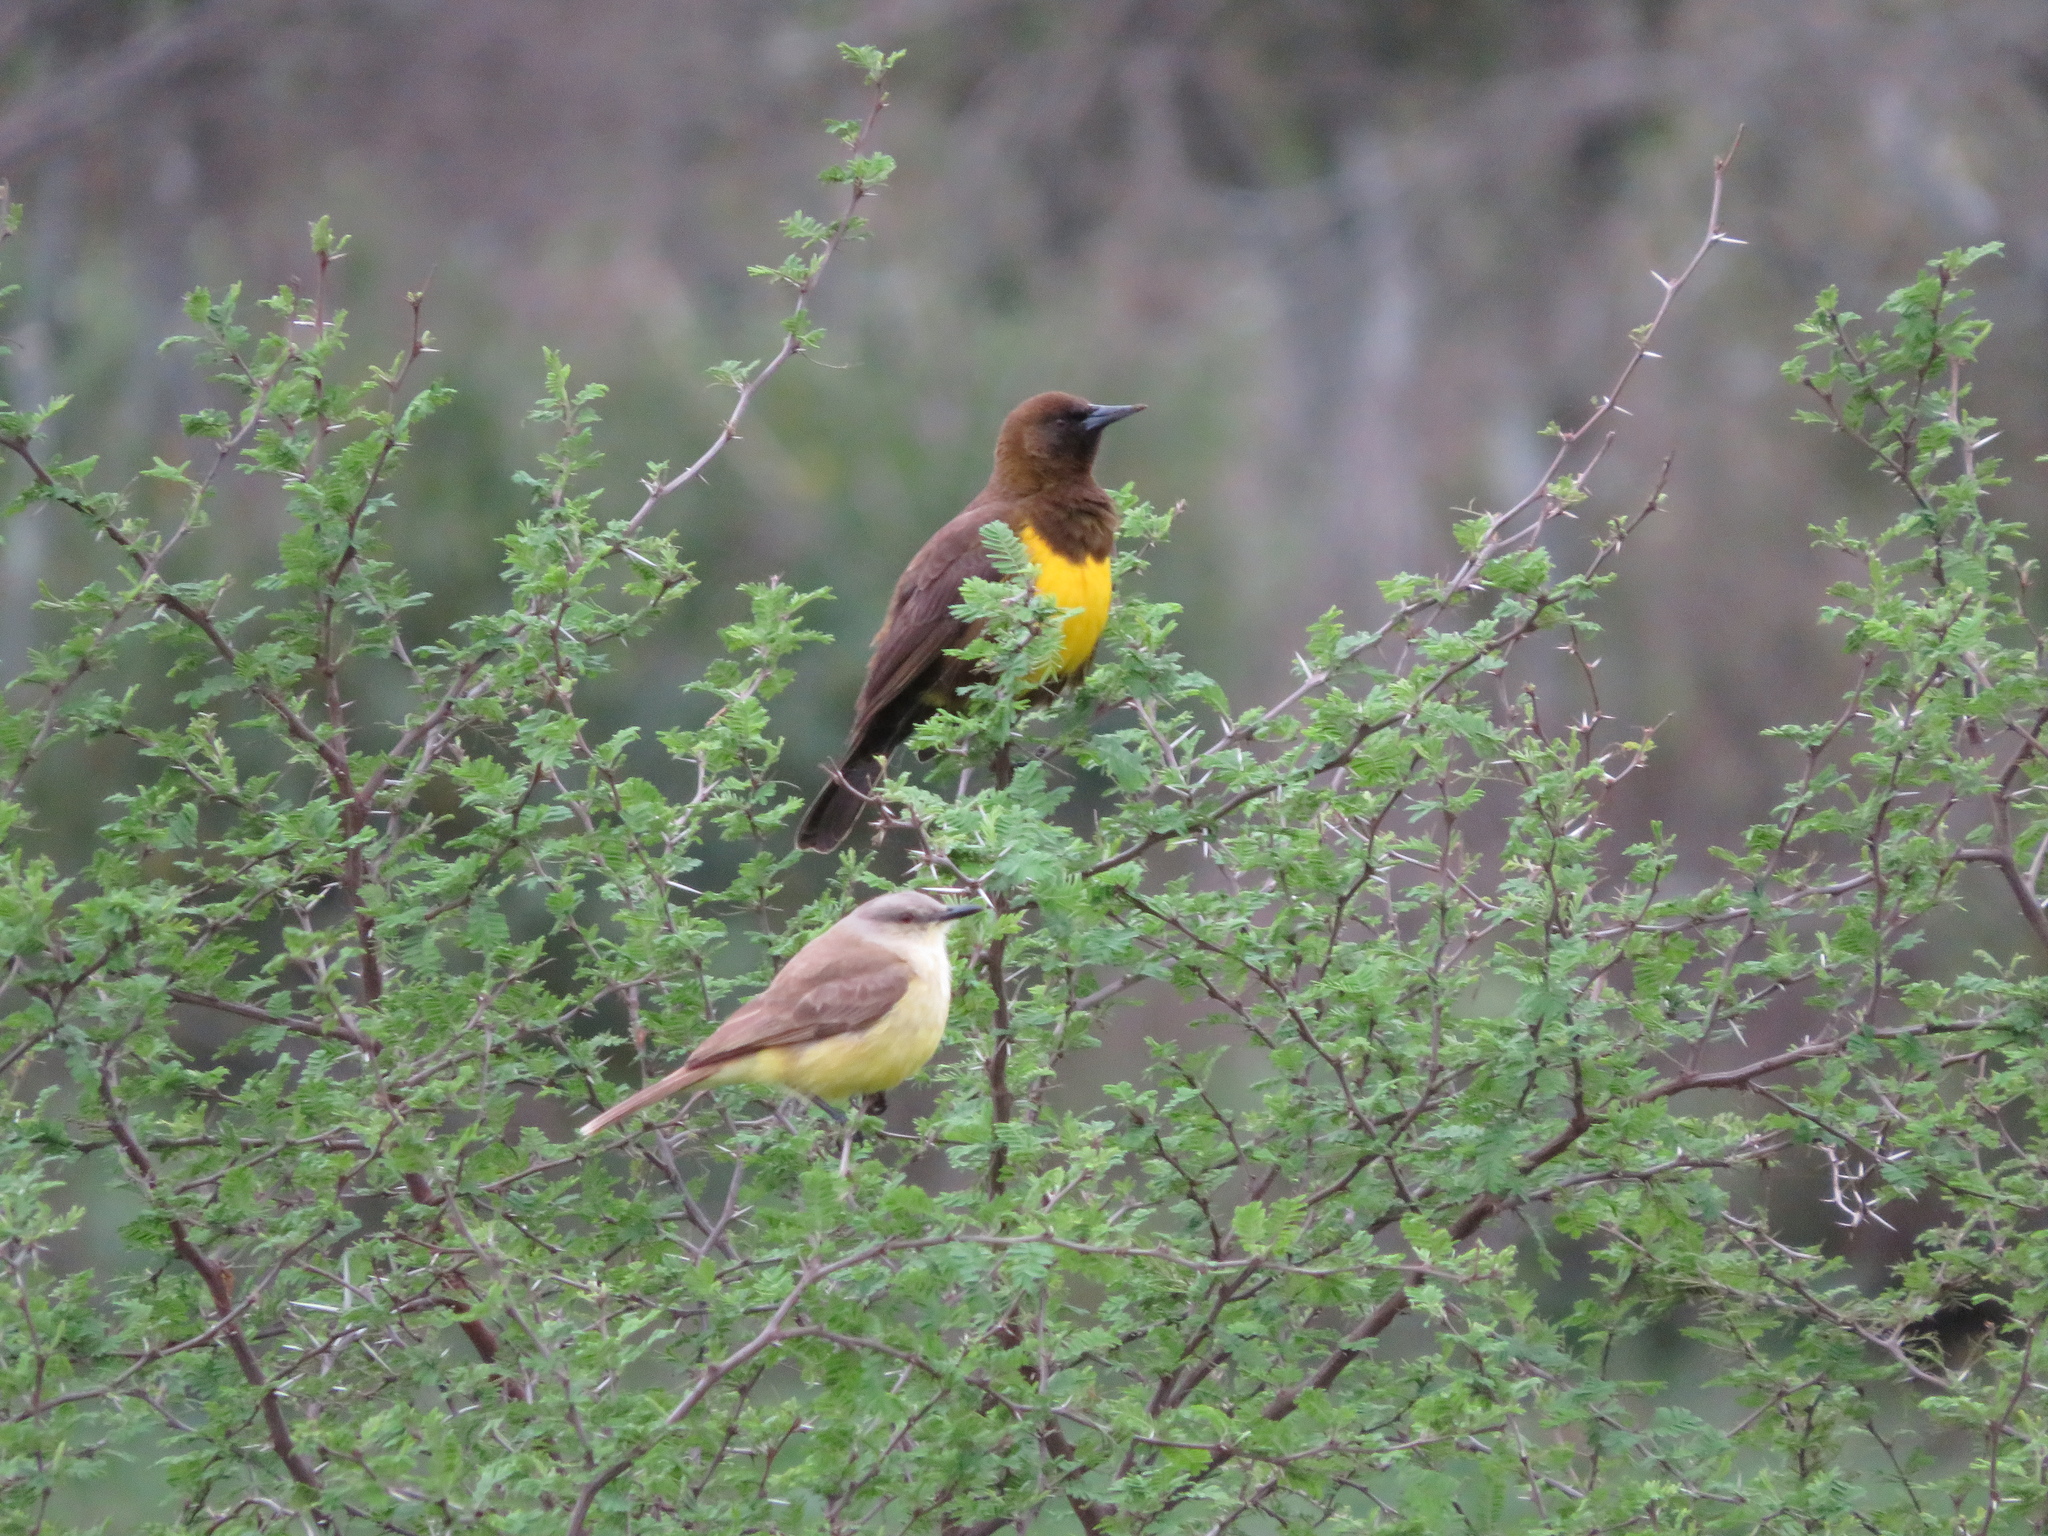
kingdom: Animalia
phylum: Chordata
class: Aves
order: Passeriformes
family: Icteridae
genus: Pseudoleistes
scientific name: Pseudoleistes virescens
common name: Brown-and-yellow marshbird
